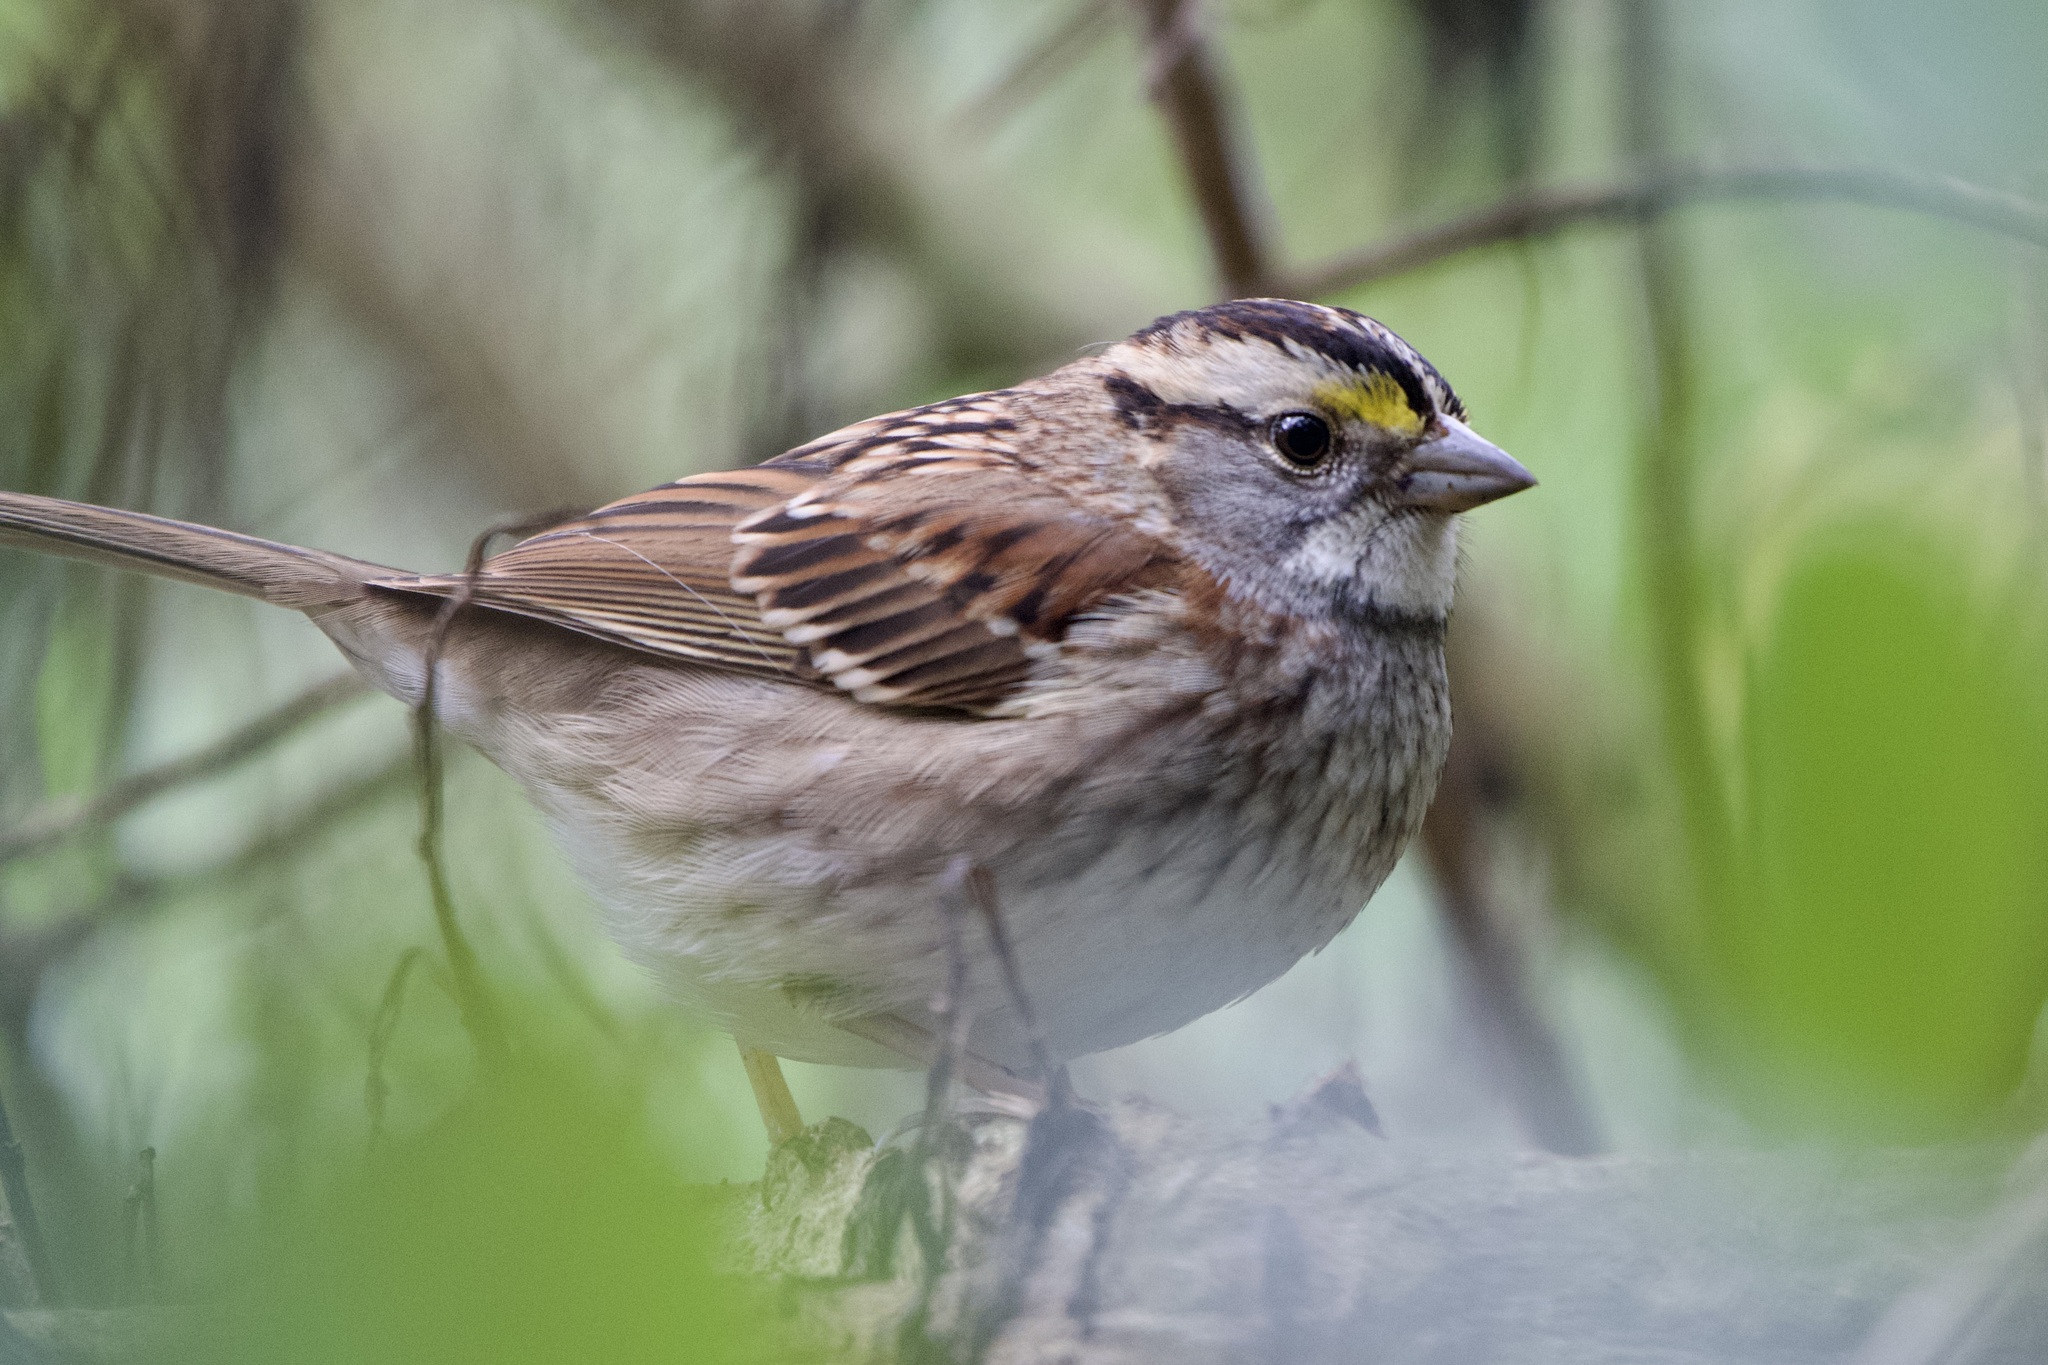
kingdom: Animalia
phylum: Chordata
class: Aves
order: Passeriformes
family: Passerellidae
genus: Zonotrichia
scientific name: Zonotrichia albicollis
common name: White-throated sparrow
